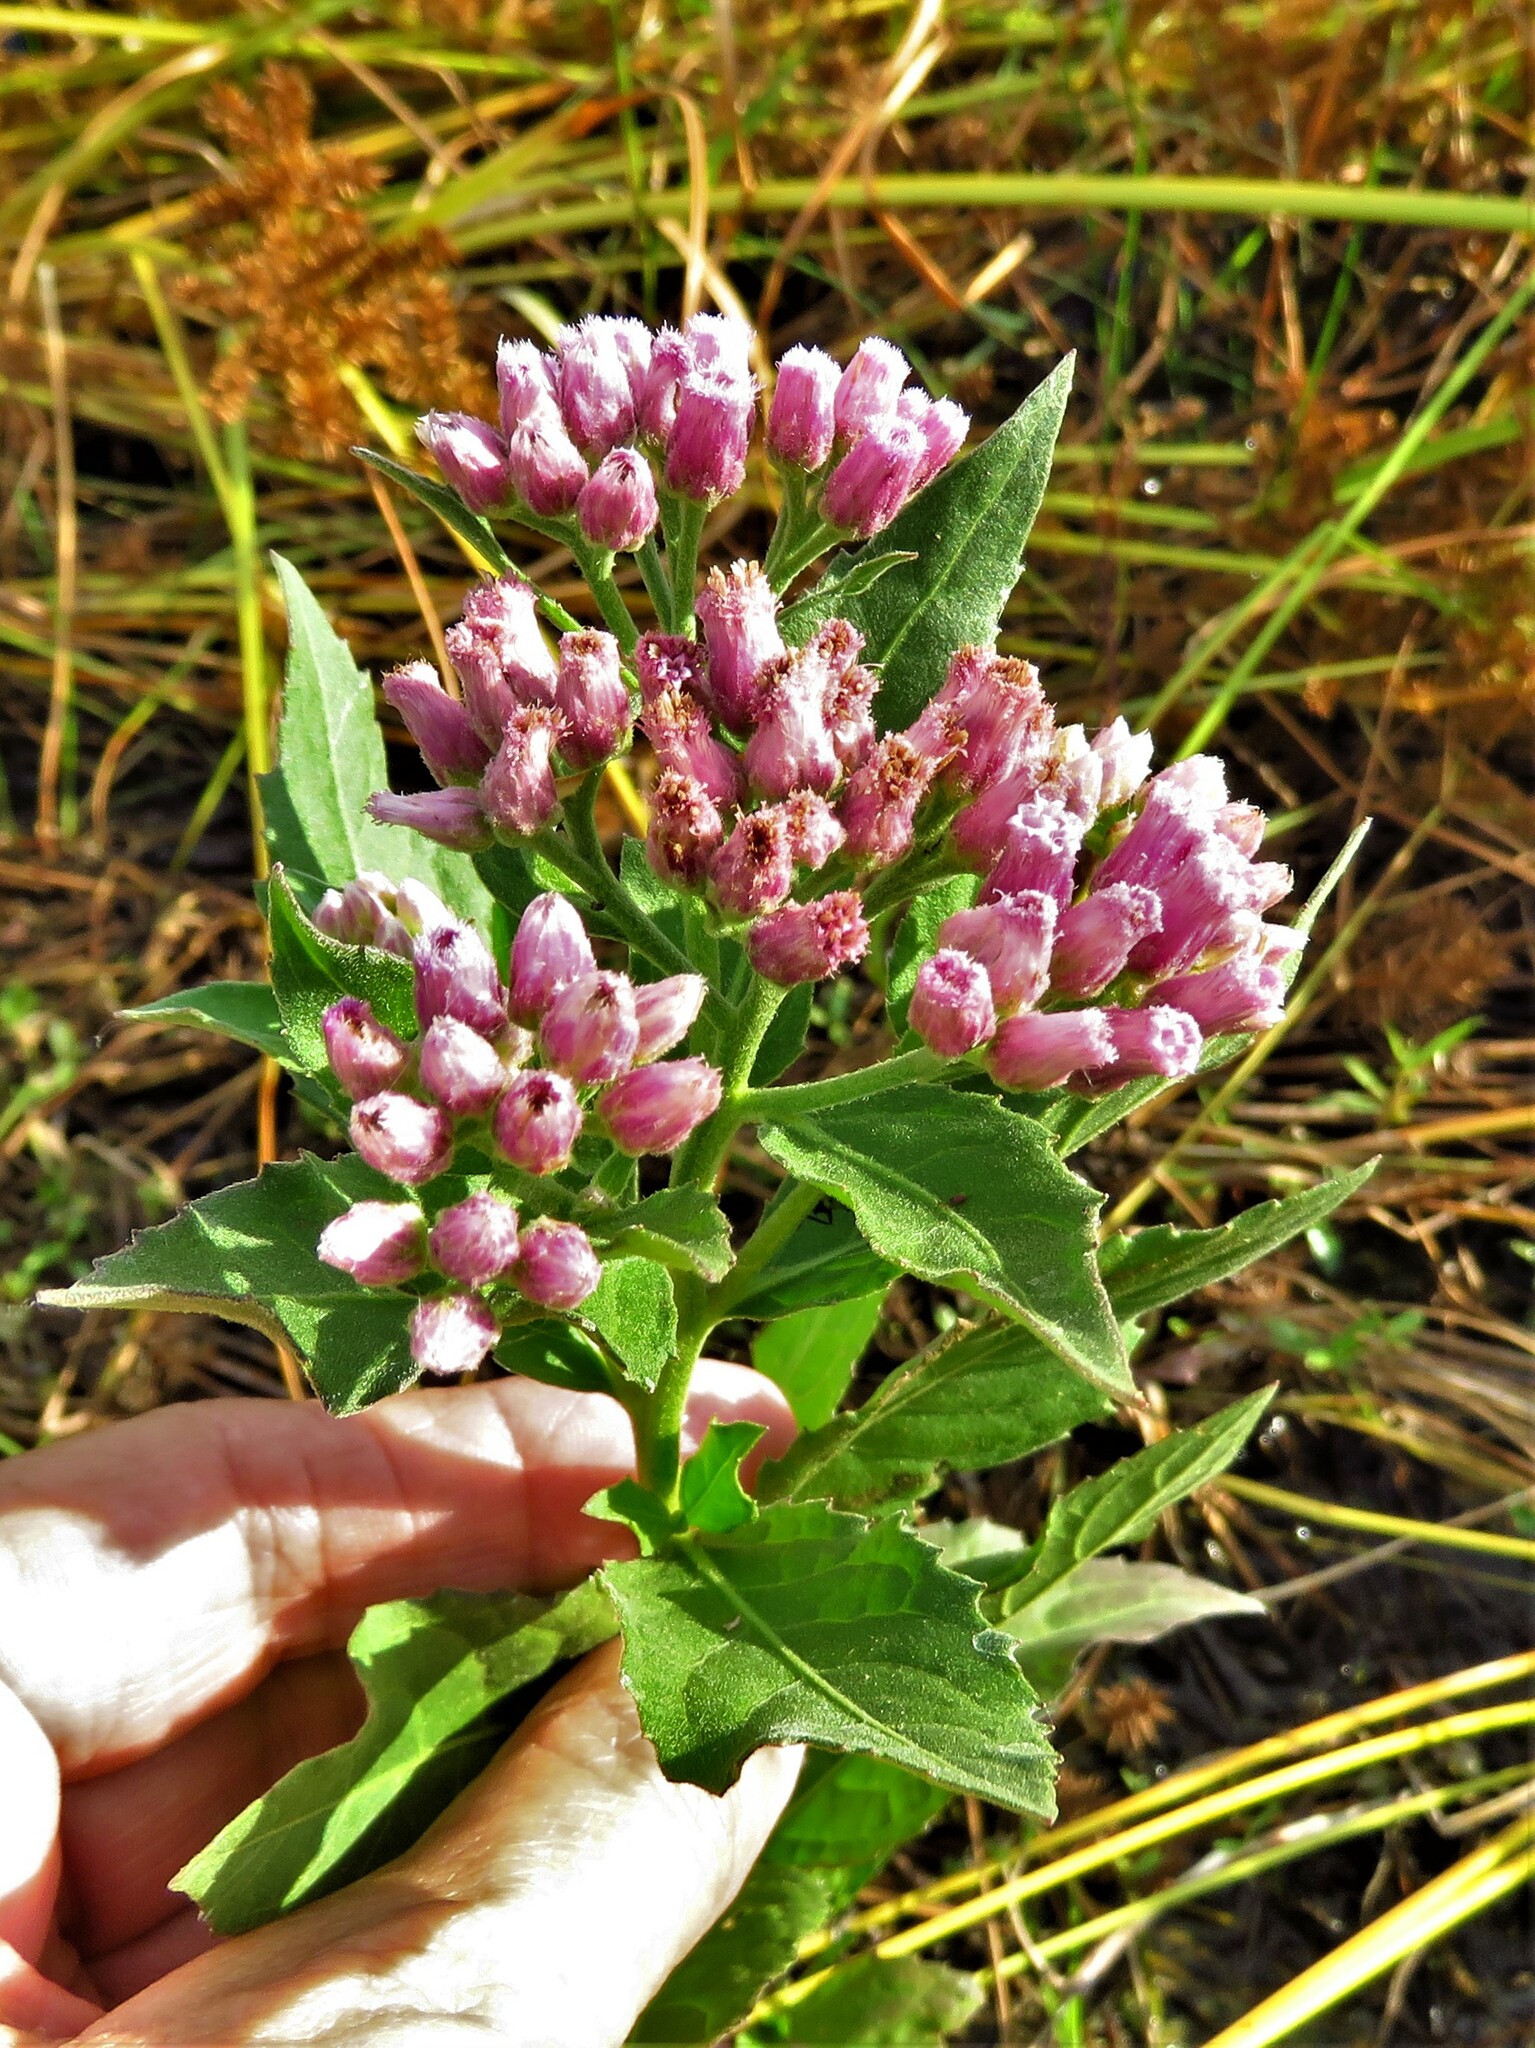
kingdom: Plantae
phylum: Tracheophyta
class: Magnoliopsida
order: Asterales
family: Asteraceae
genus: Pluchea
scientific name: Pluchea odorata
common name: Saltmarsh fleabane
